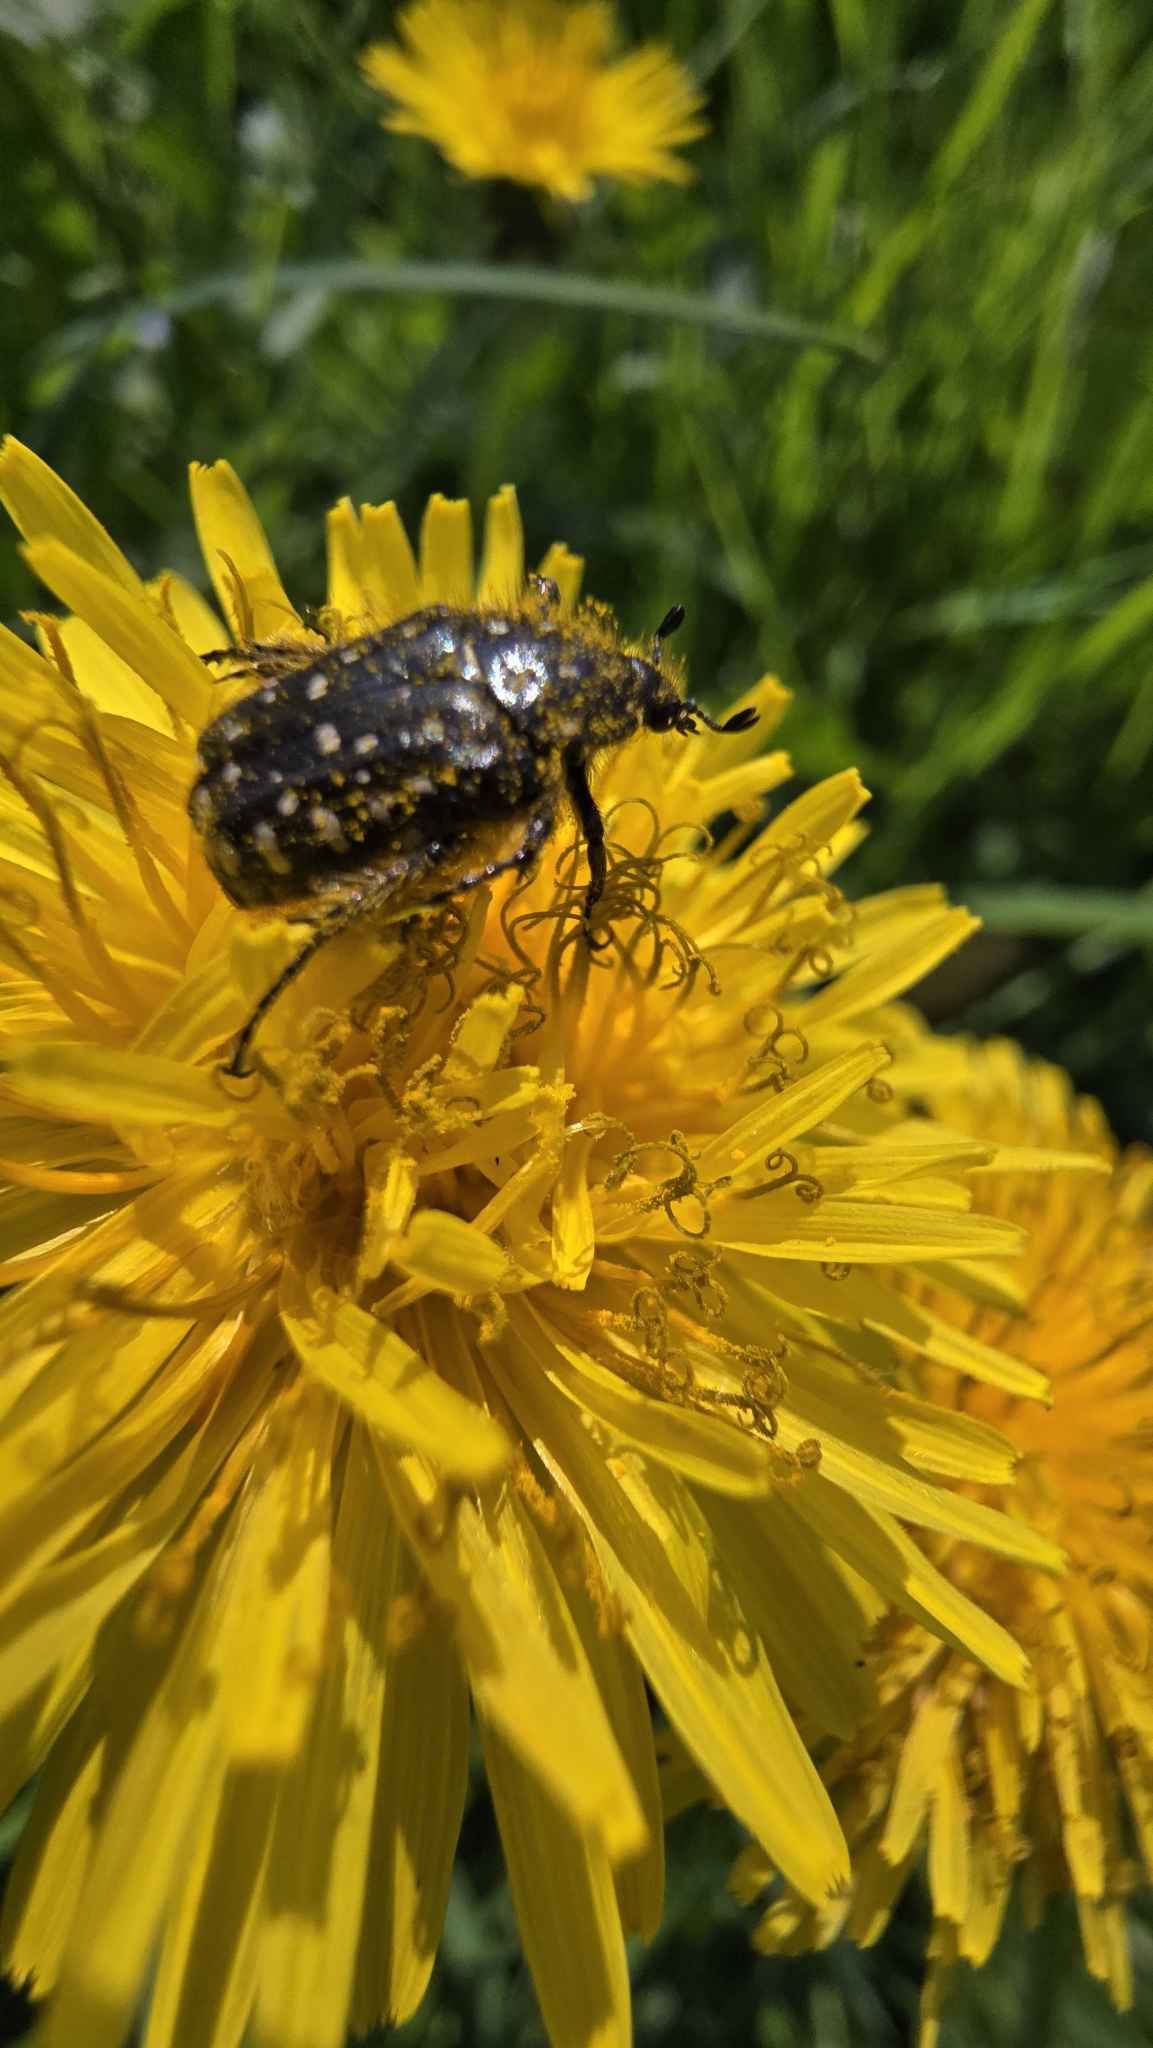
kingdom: Animalia
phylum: Arthropoda
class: Insecta
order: Coleoptera
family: Scarabaeidae
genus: Oxythyrea
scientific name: Oxythyrea funesta
